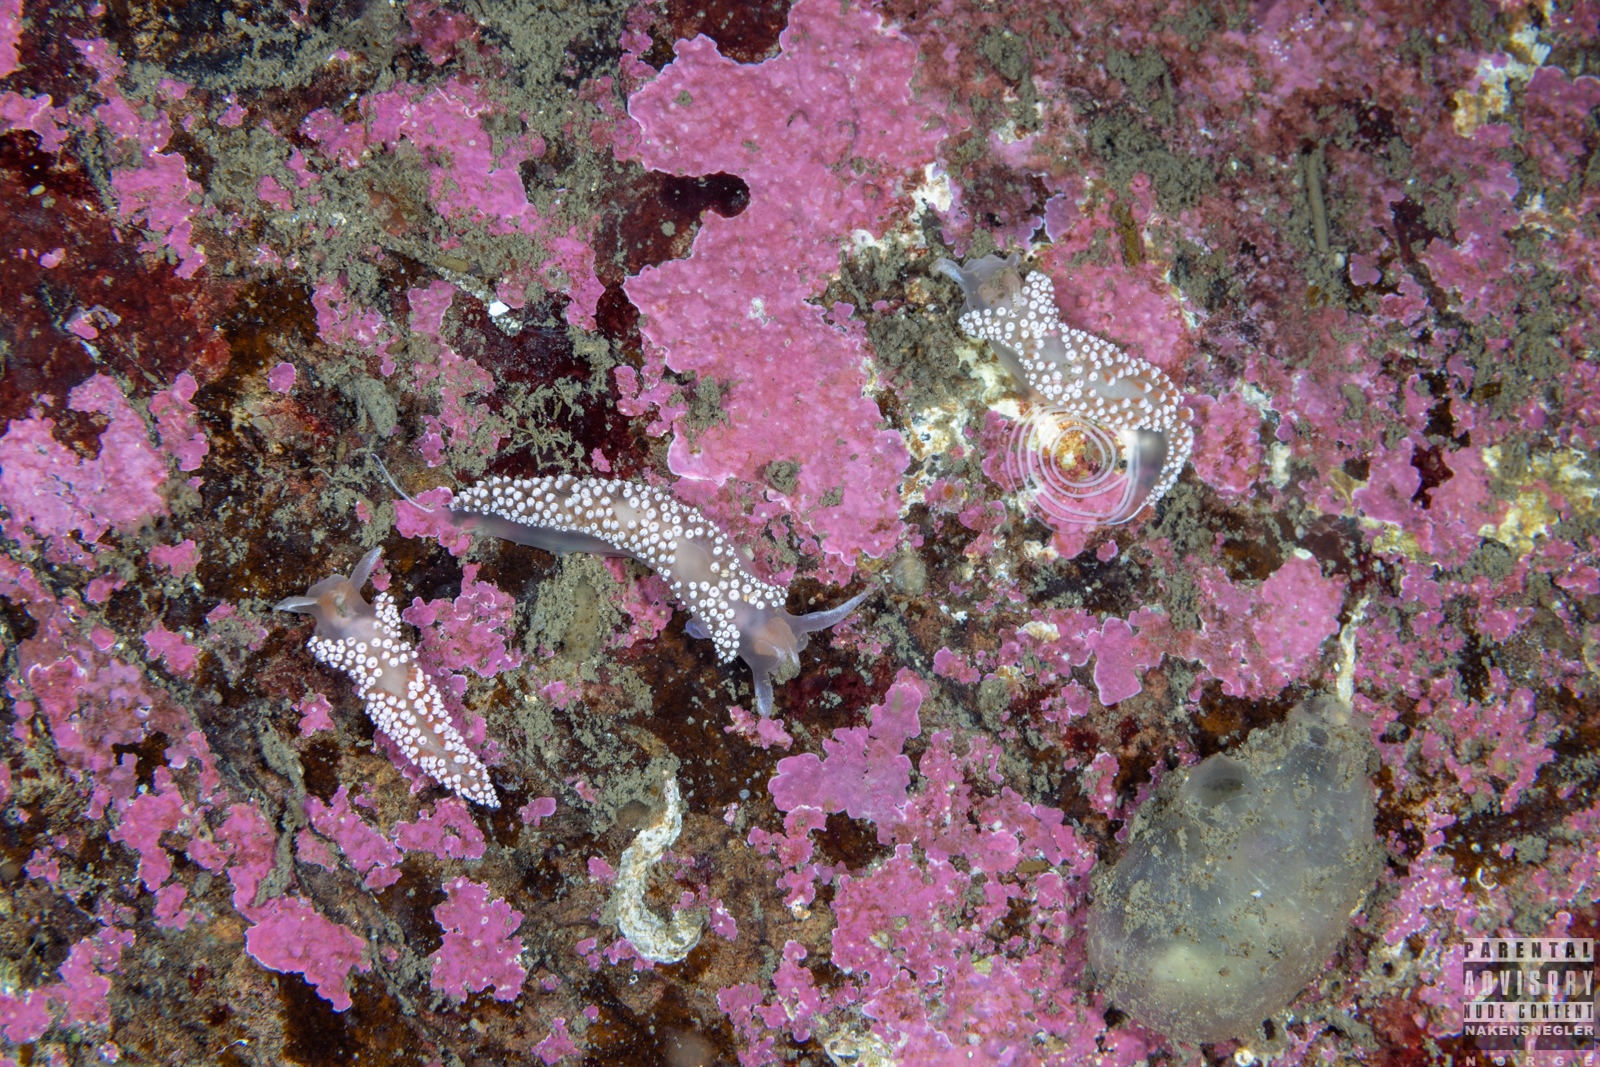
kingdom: Animalia
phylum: Mollusca
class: Gastropoda
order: Nudibranchia
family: Coryphellidae
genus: Coryphella
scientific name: Coryphella verrucosa
